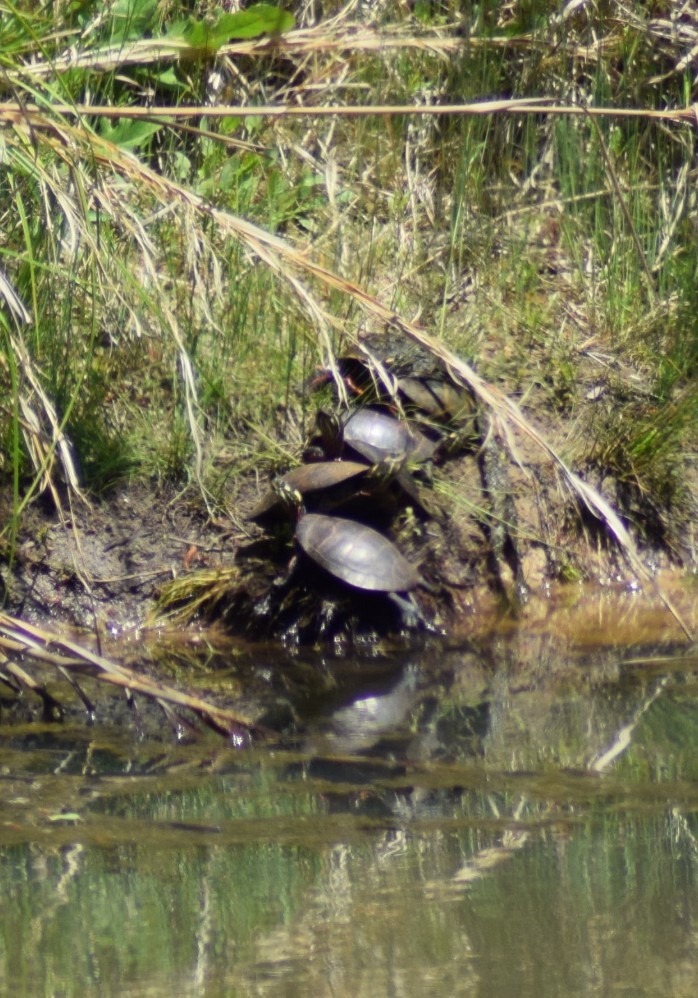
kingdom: Animalia
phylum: Chordata
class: Testudines
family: Emydidae
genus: Chrysemys
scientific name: Chrysemys picta
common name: Painted turtle
